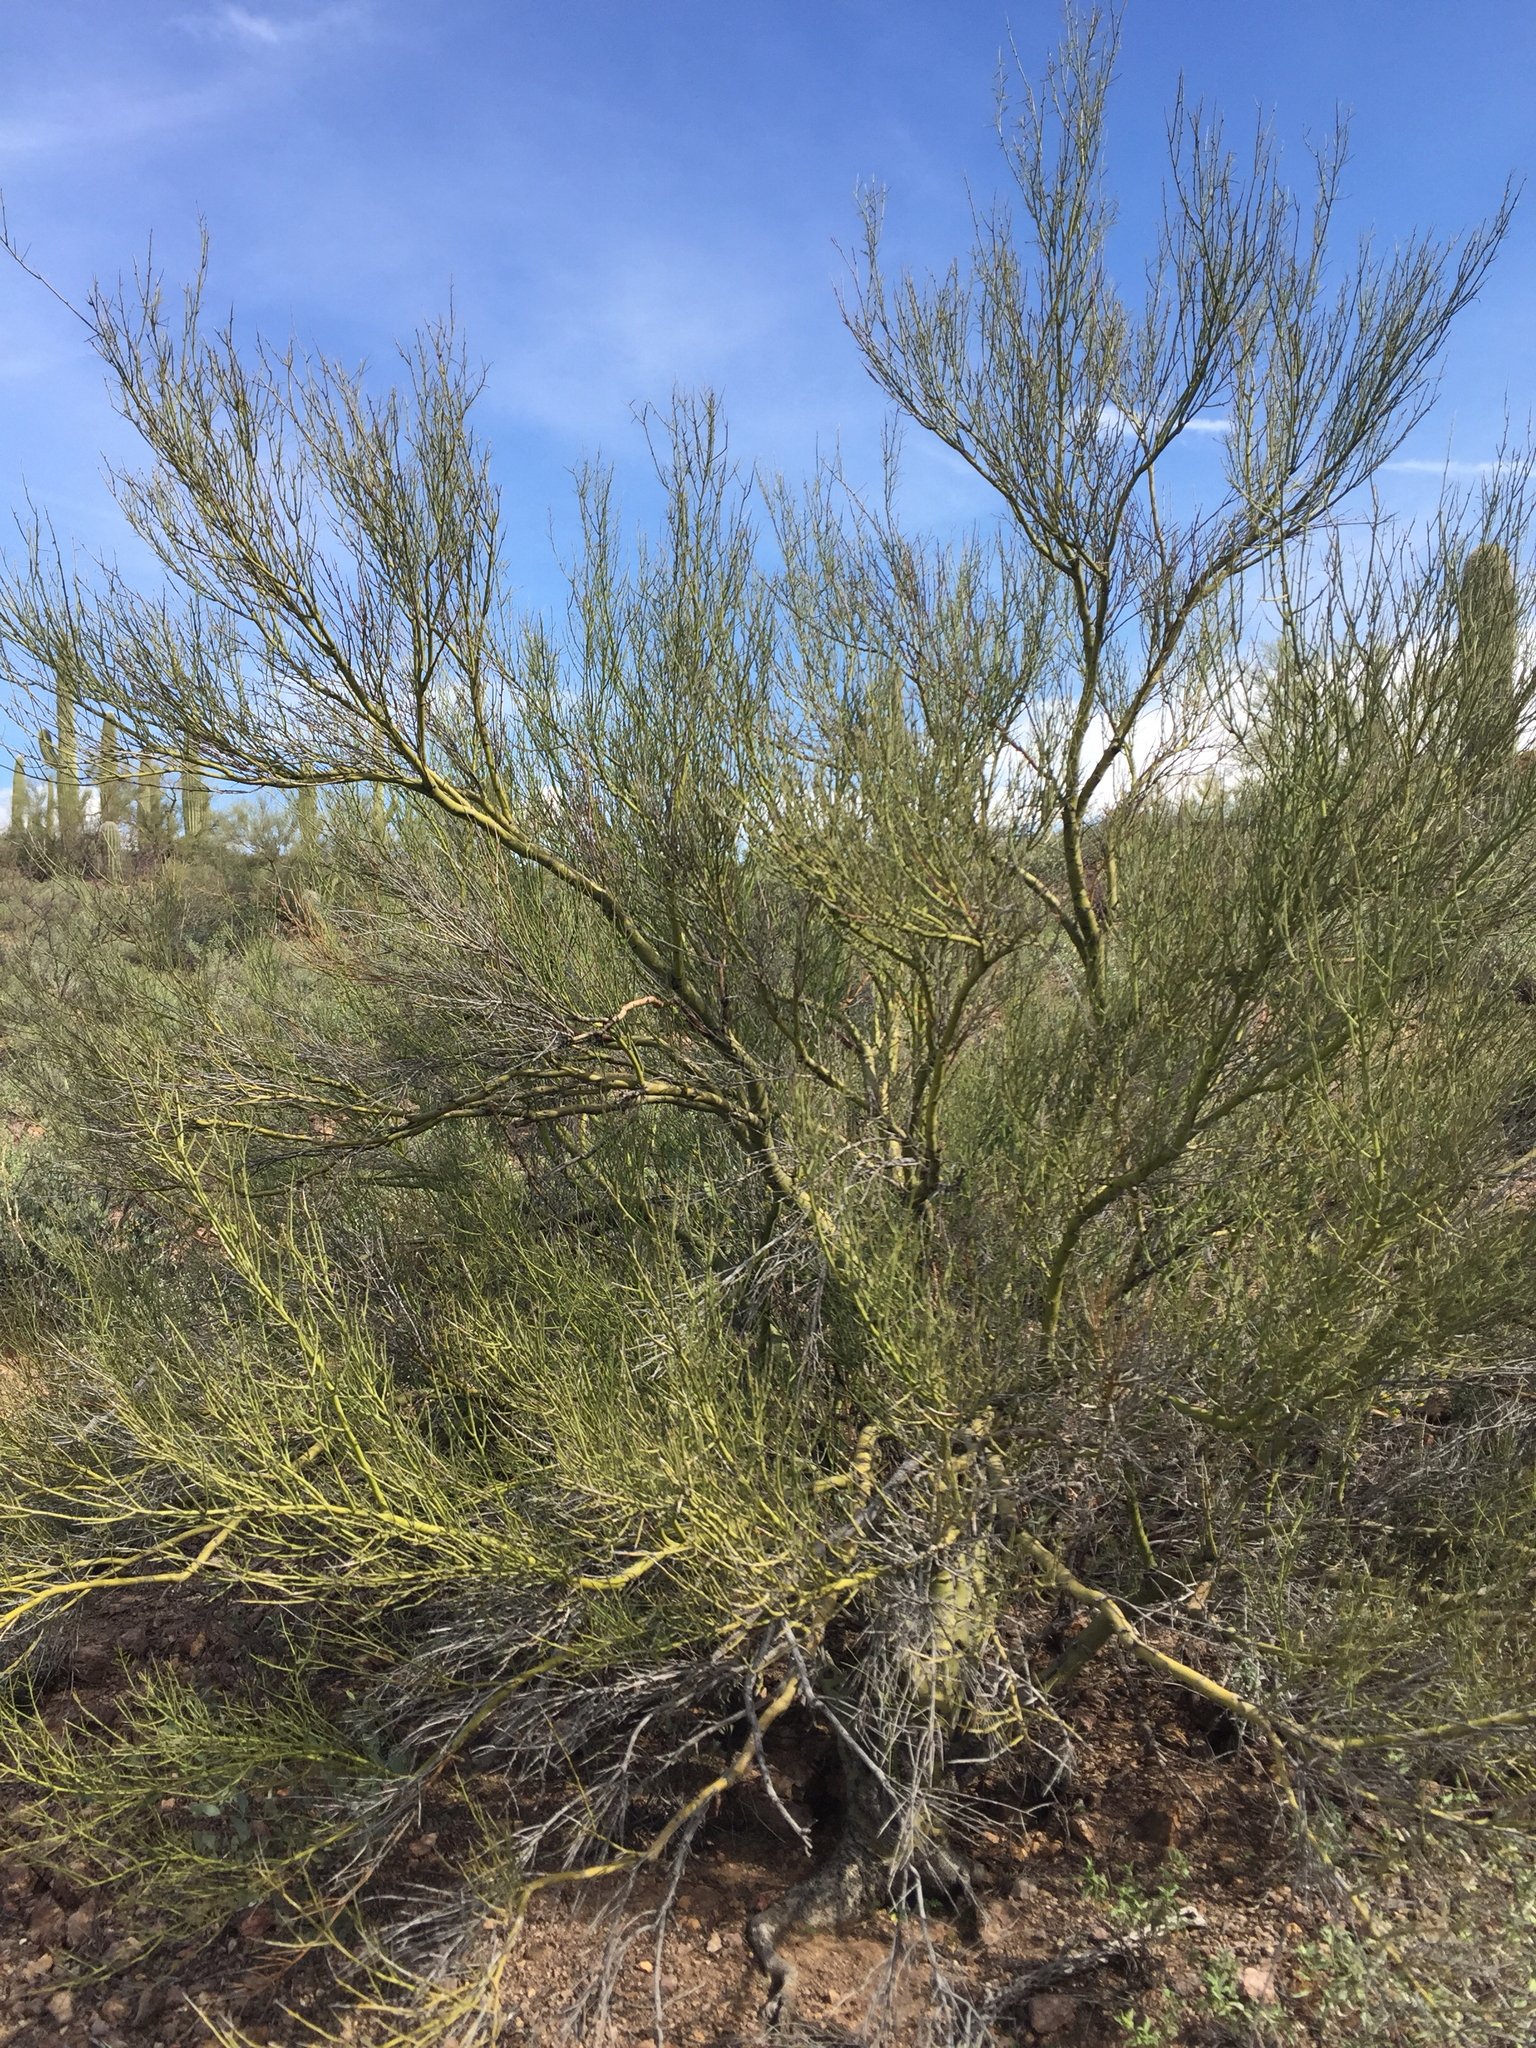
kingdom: Plantae
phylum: Tracheophyta
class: Magnoliopsida
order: Fabales
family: Fabaceae
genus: Parkinsonia
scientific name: Parkinsonia microphylla
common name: Yellow paloverde
